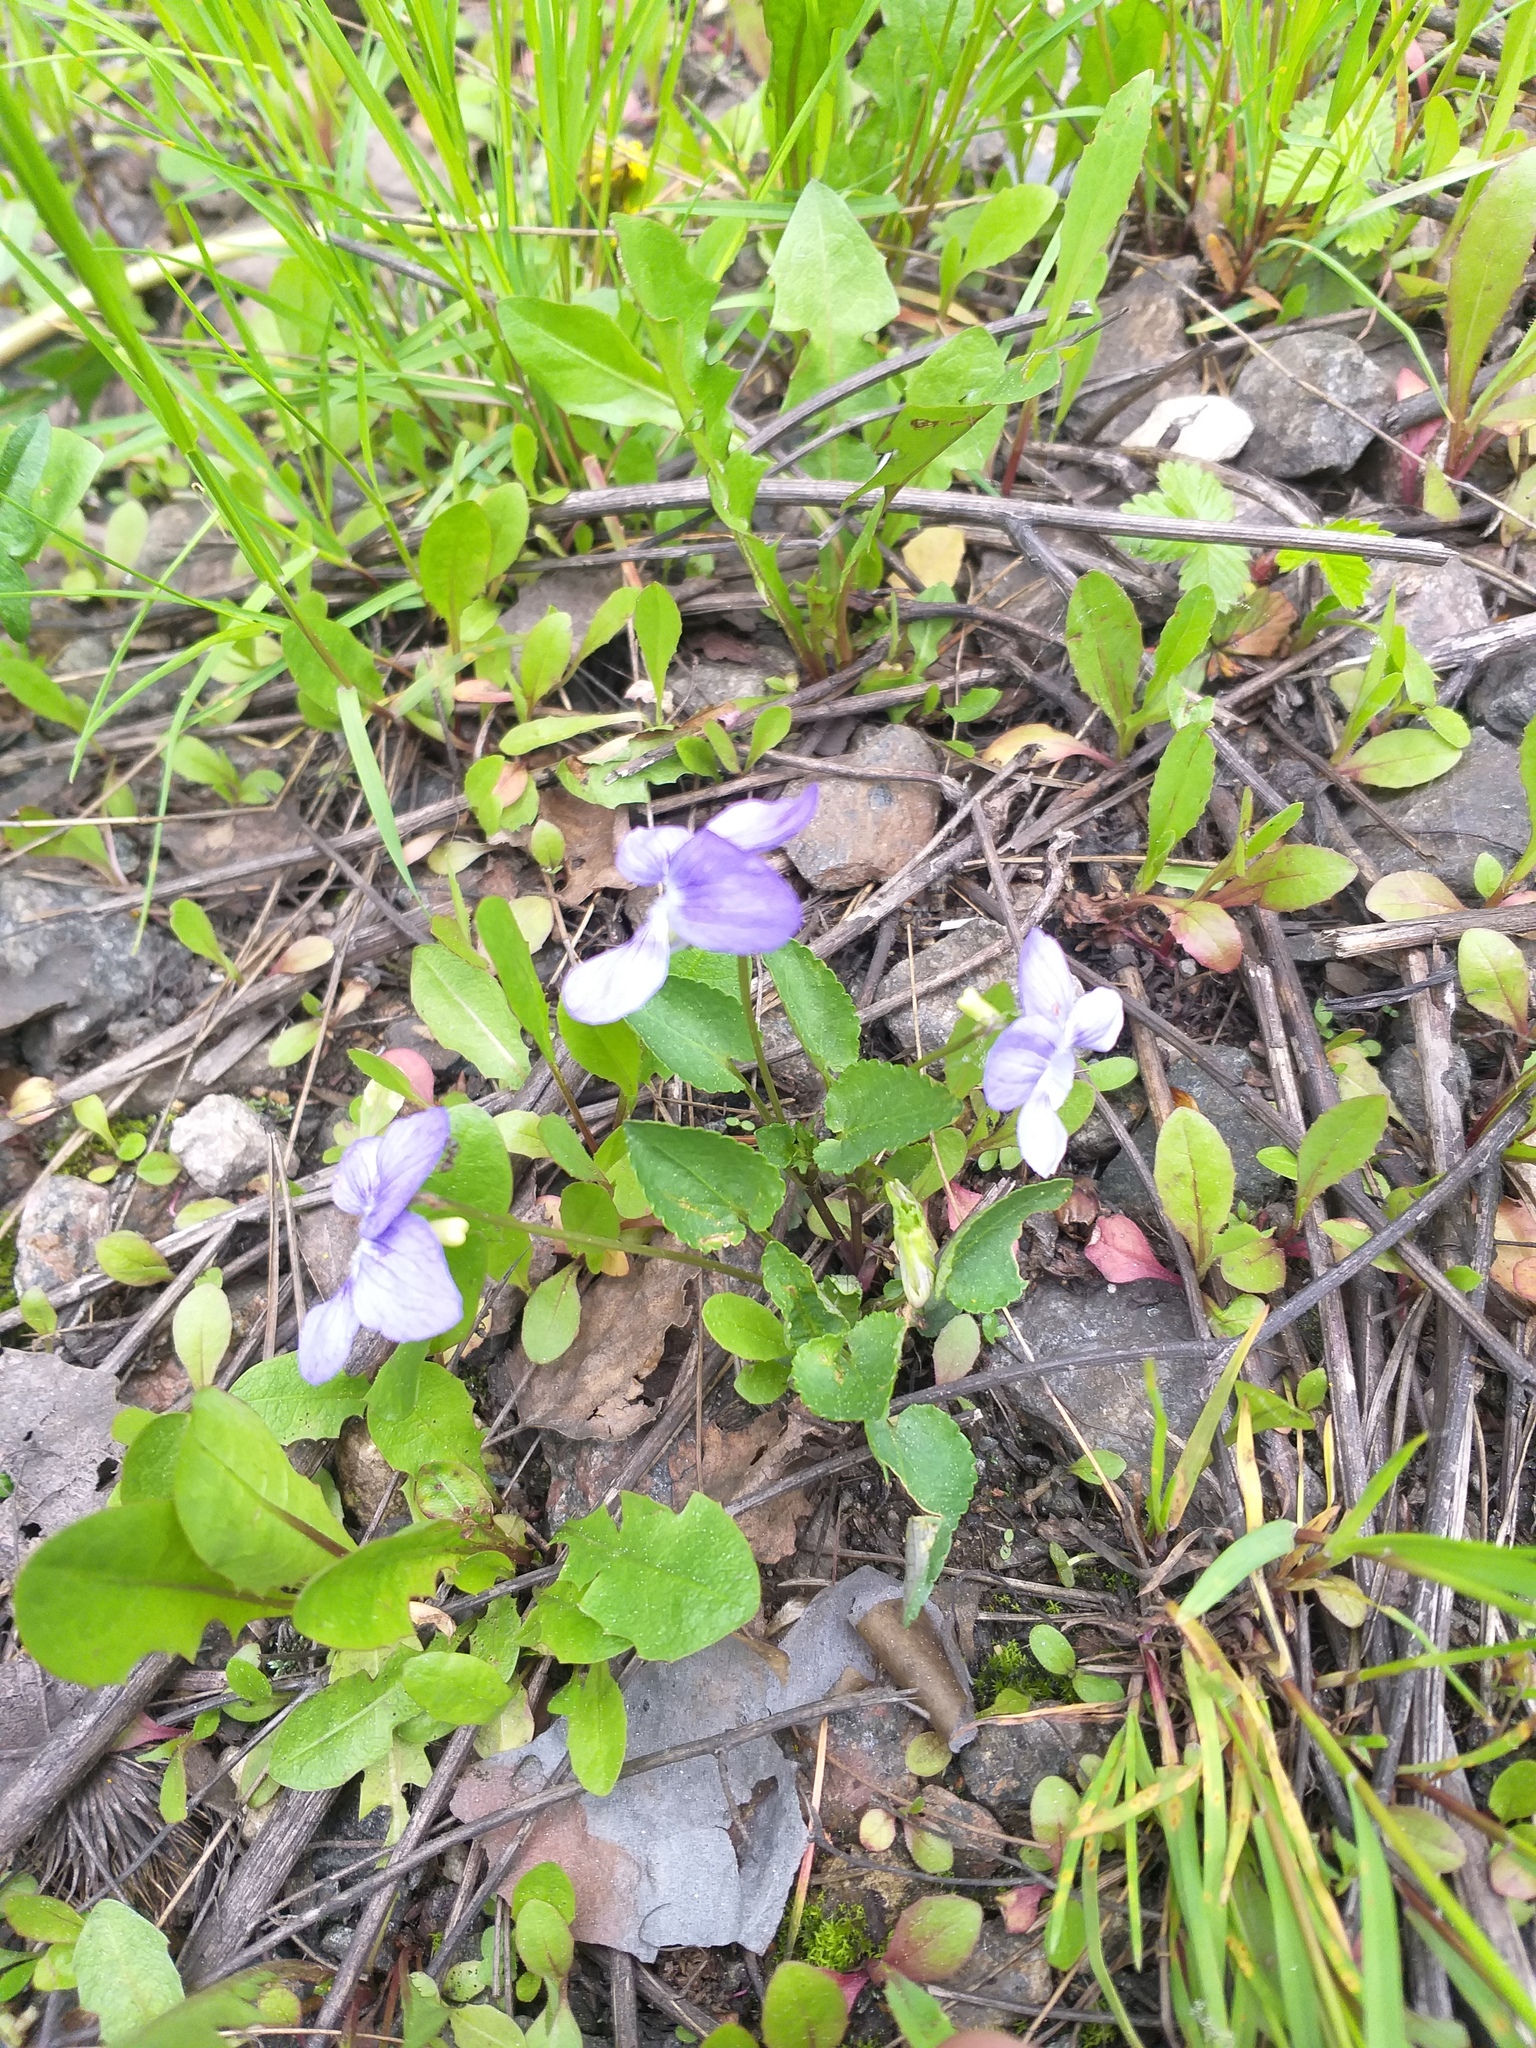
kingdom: Plantae
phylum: Tracheophyta
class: Magnoliopsida
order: Malpighiales
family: Violaceae
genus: Viola
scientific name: Viola canina
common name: Heath dog-violet
